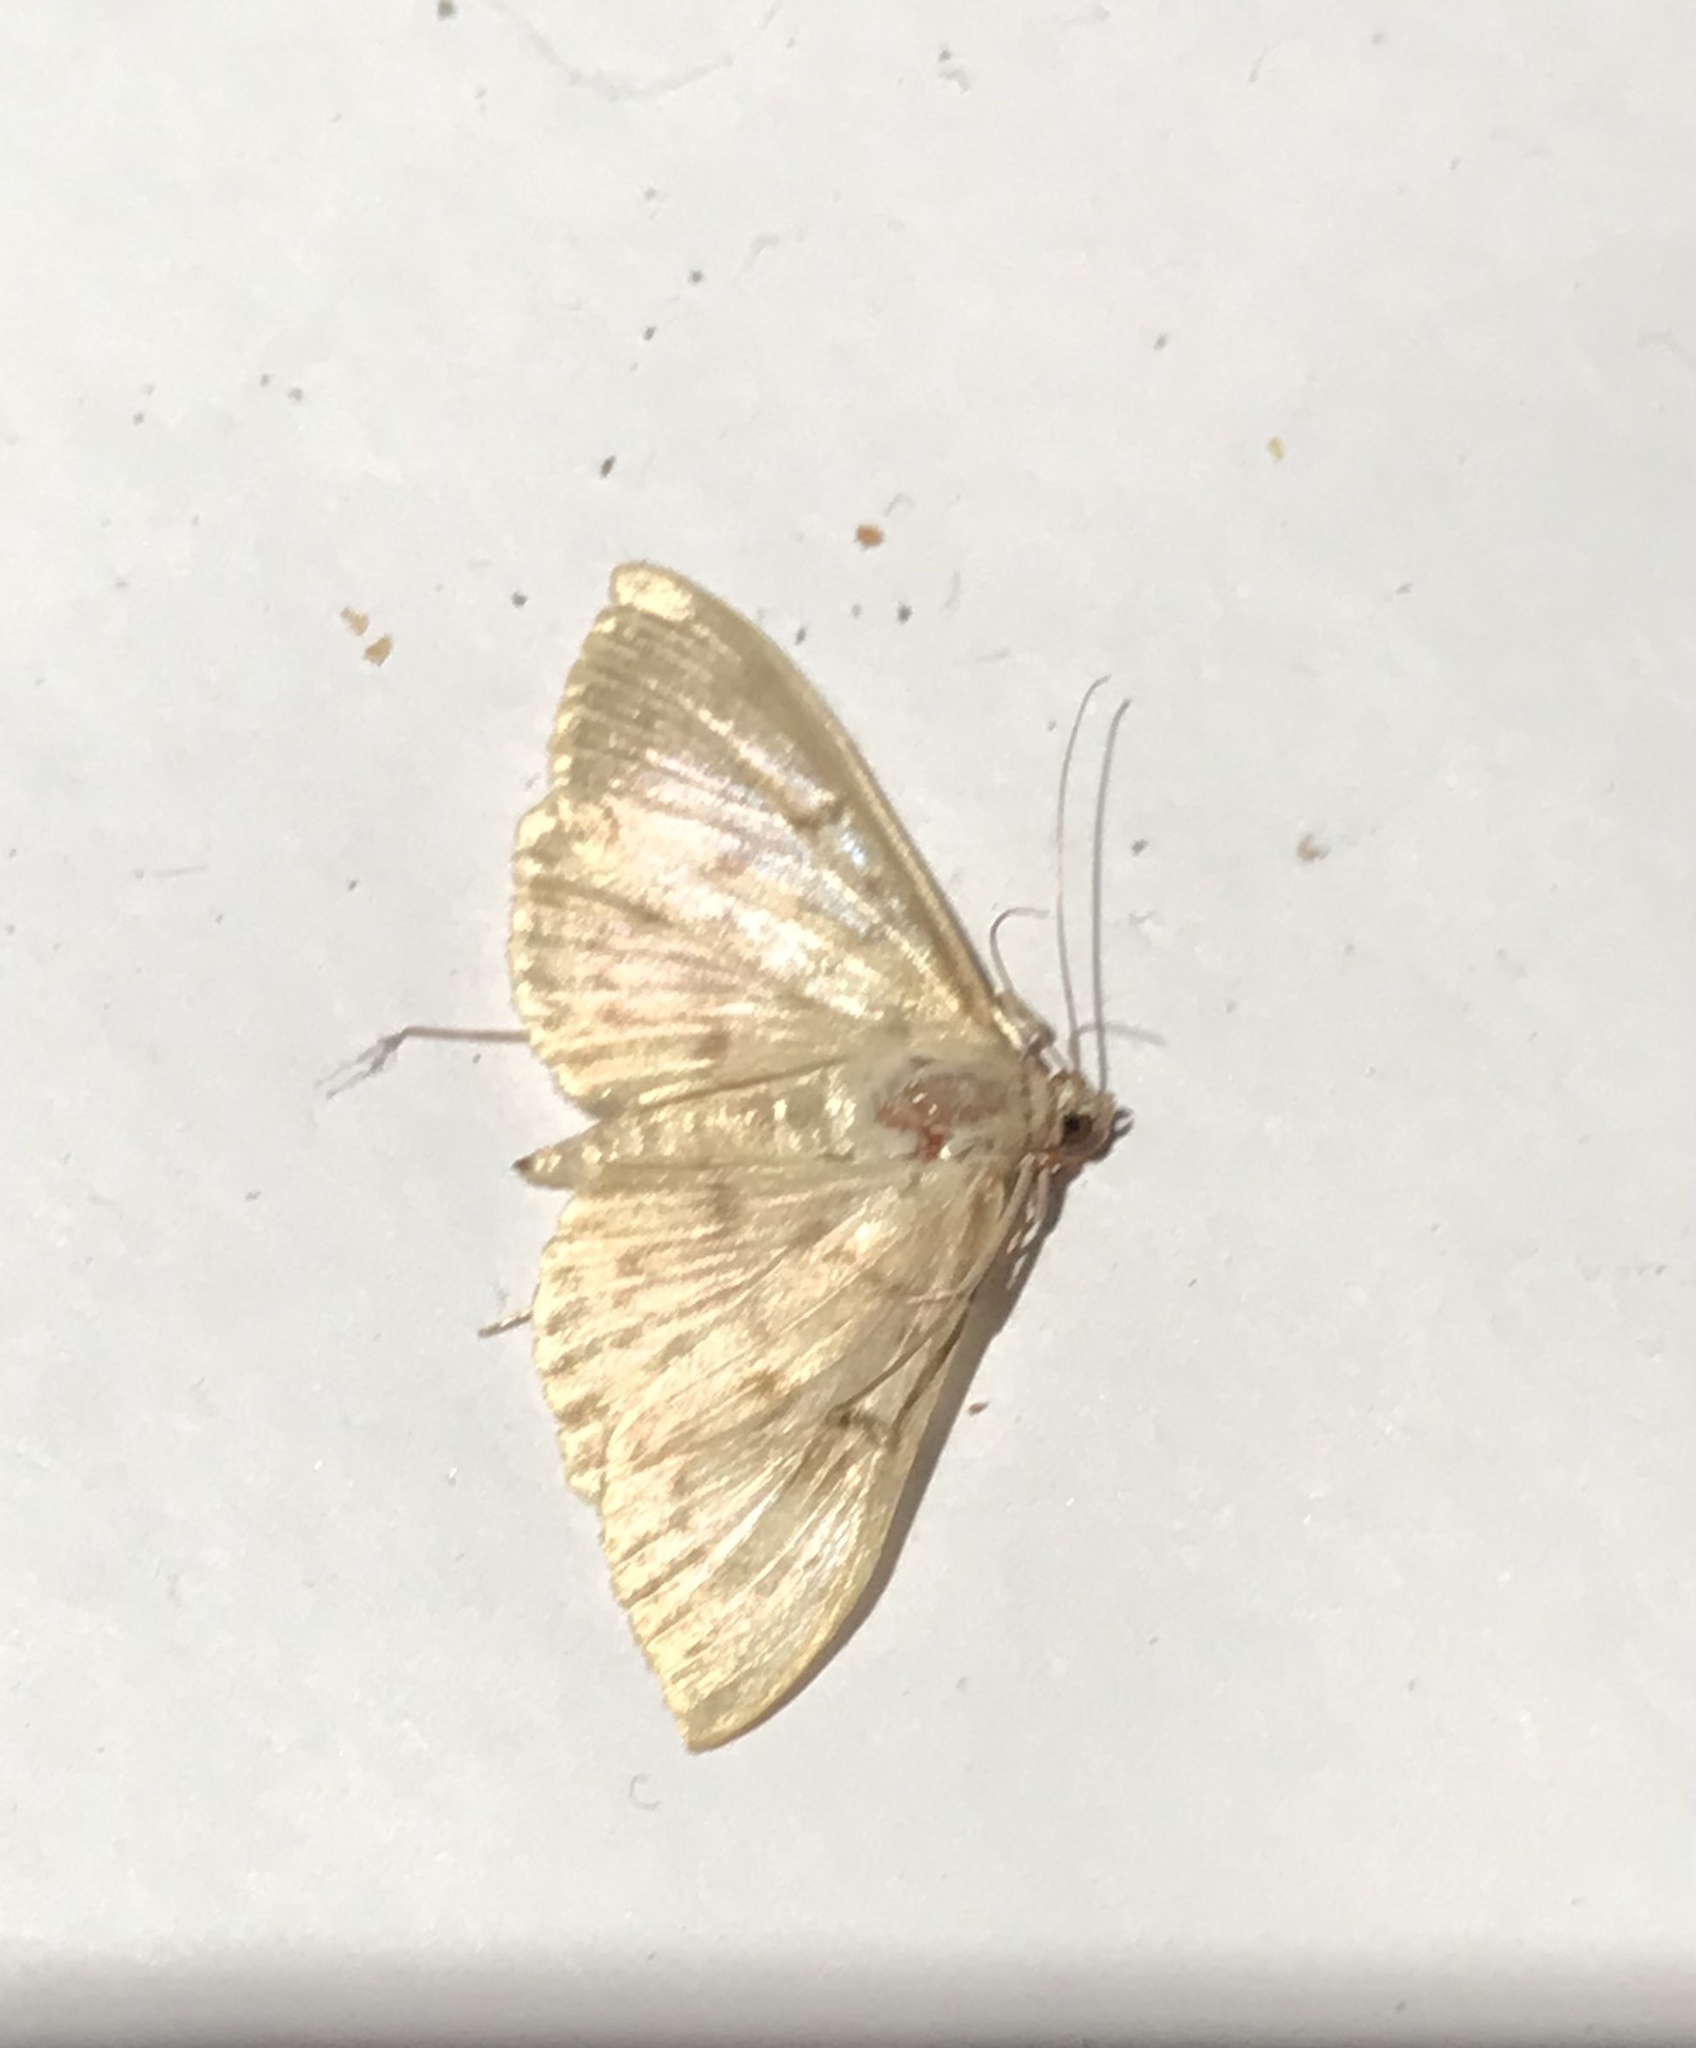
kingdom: Animalia
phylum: Arthropoda
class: Insecta
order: Lepidoptera
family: Crambidae
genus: Patania
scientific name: Patania ruralis
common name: Mother of pearl
